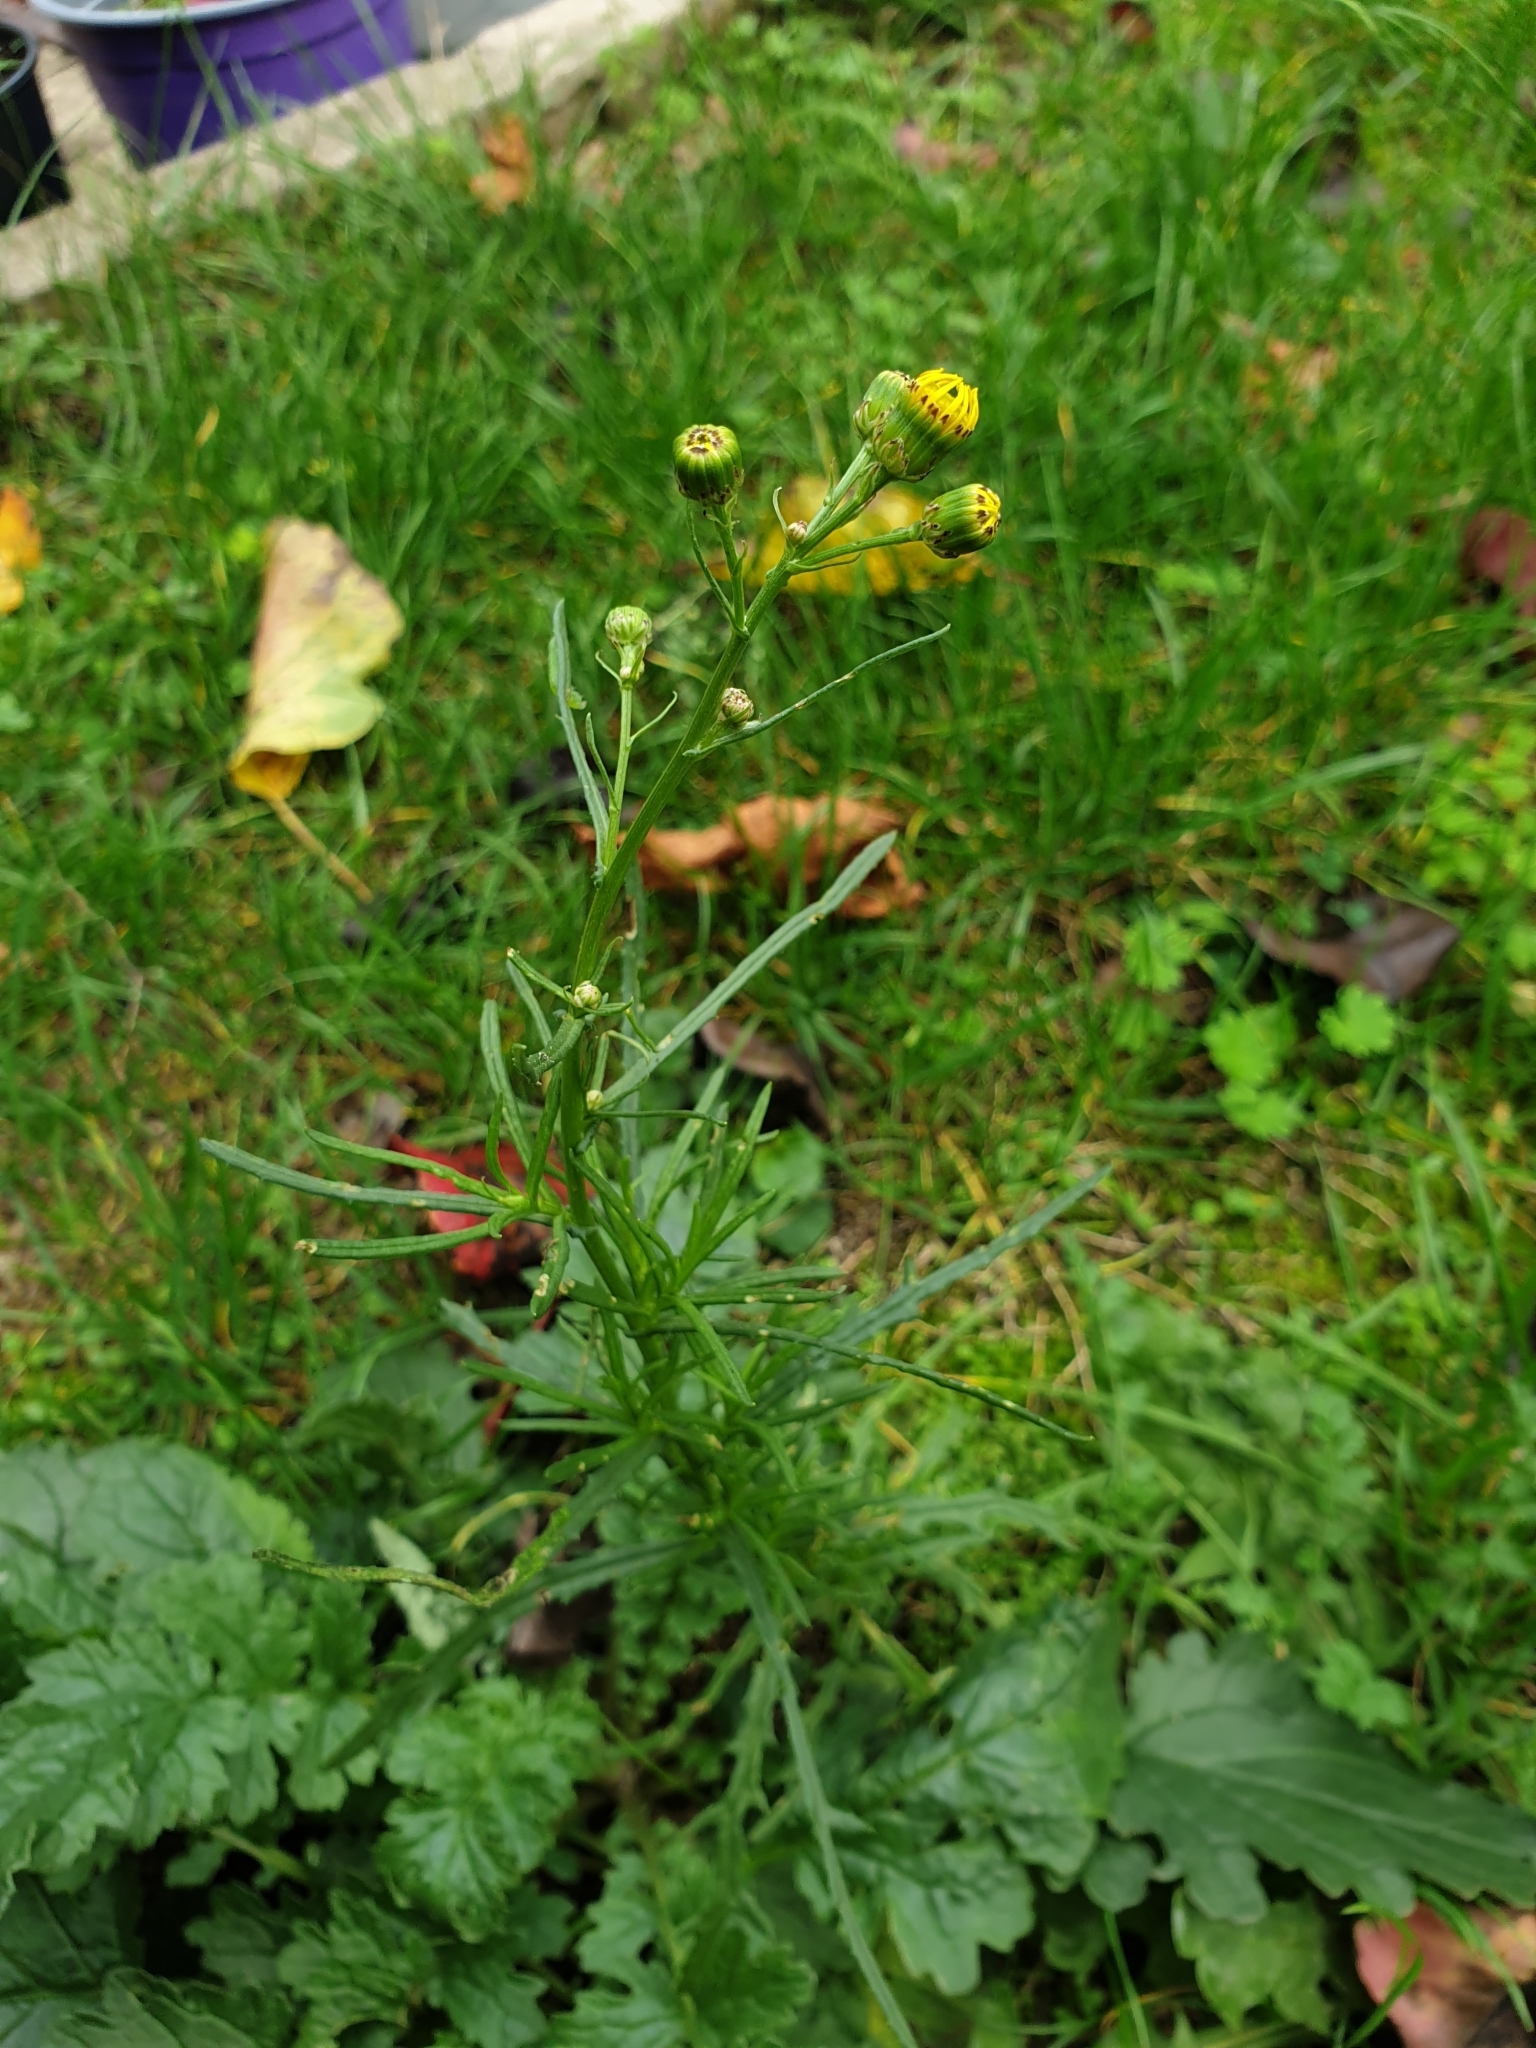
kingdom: Plantae
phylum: Tracheophyta
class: Magnoliopsida
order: Asterales
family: Asteraceae
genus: Senecio
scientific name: Senecio inaequidens
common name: Narrow-leaved ragwort
